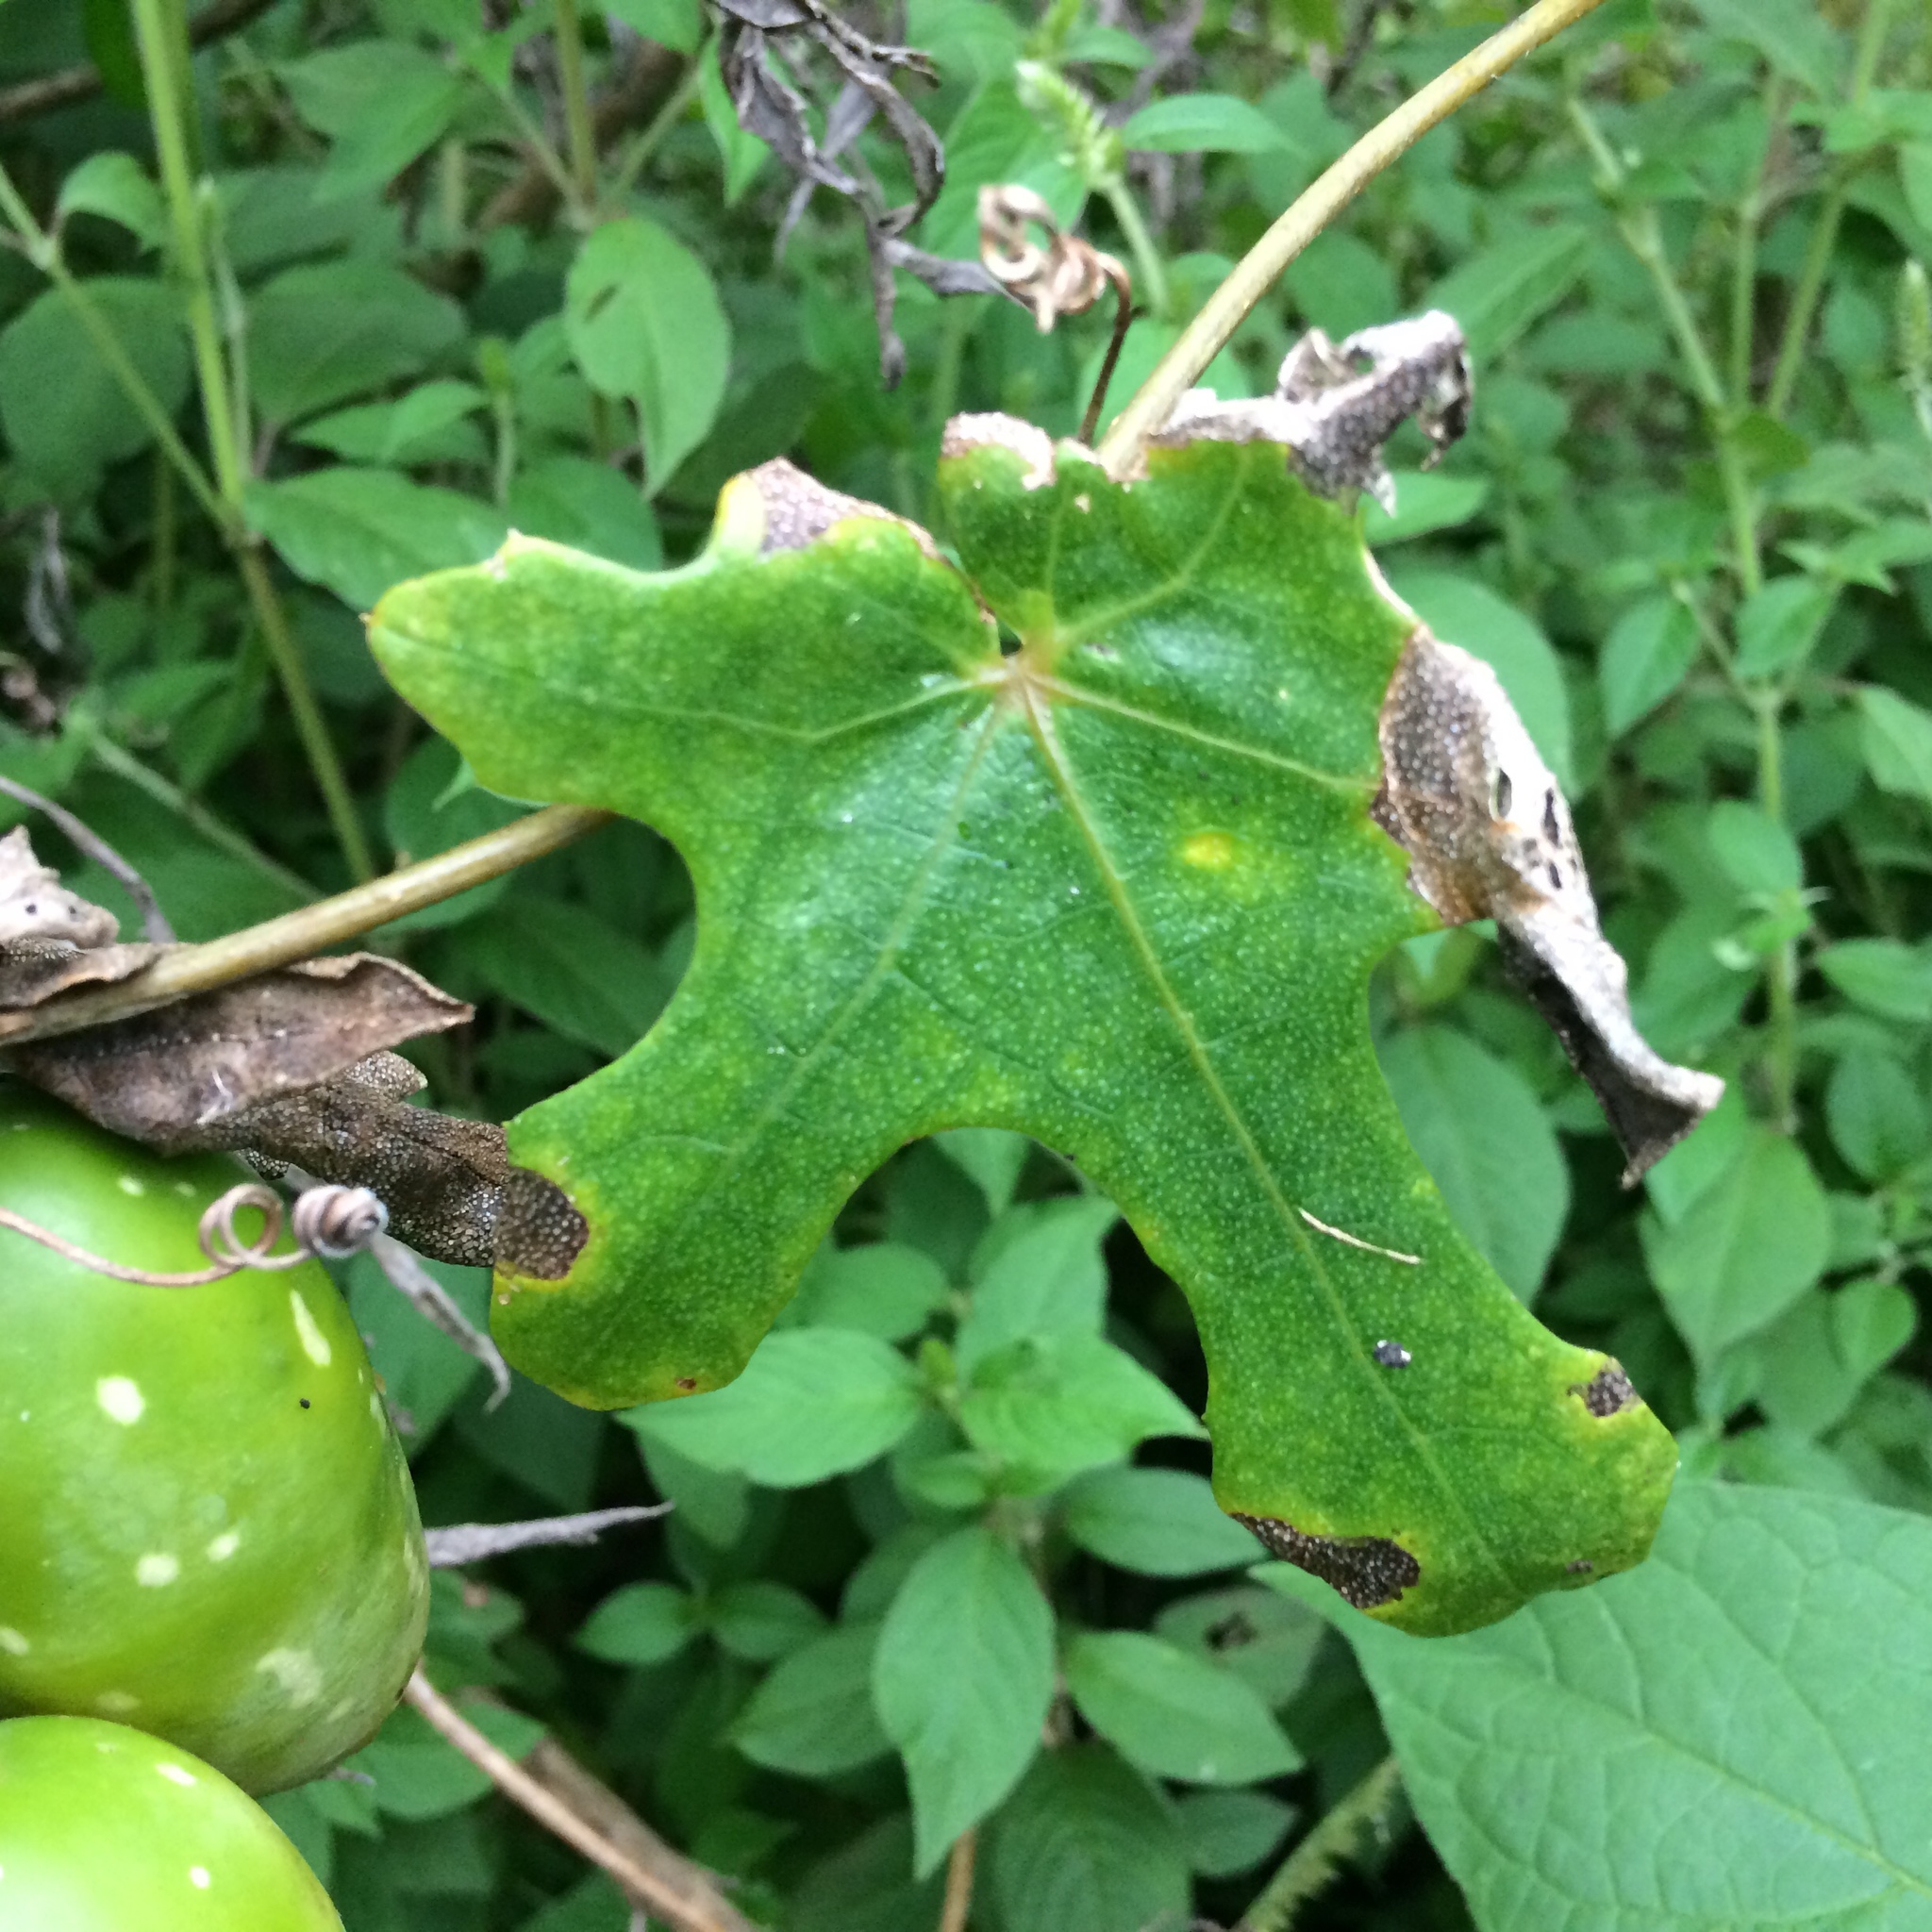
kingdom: Plantae
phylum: Tracheophyta
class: Magnoliopsida
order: Cucurbitales
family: Cucurbitaceae
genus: Coccinia
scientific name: Coccinia quinqueloba
